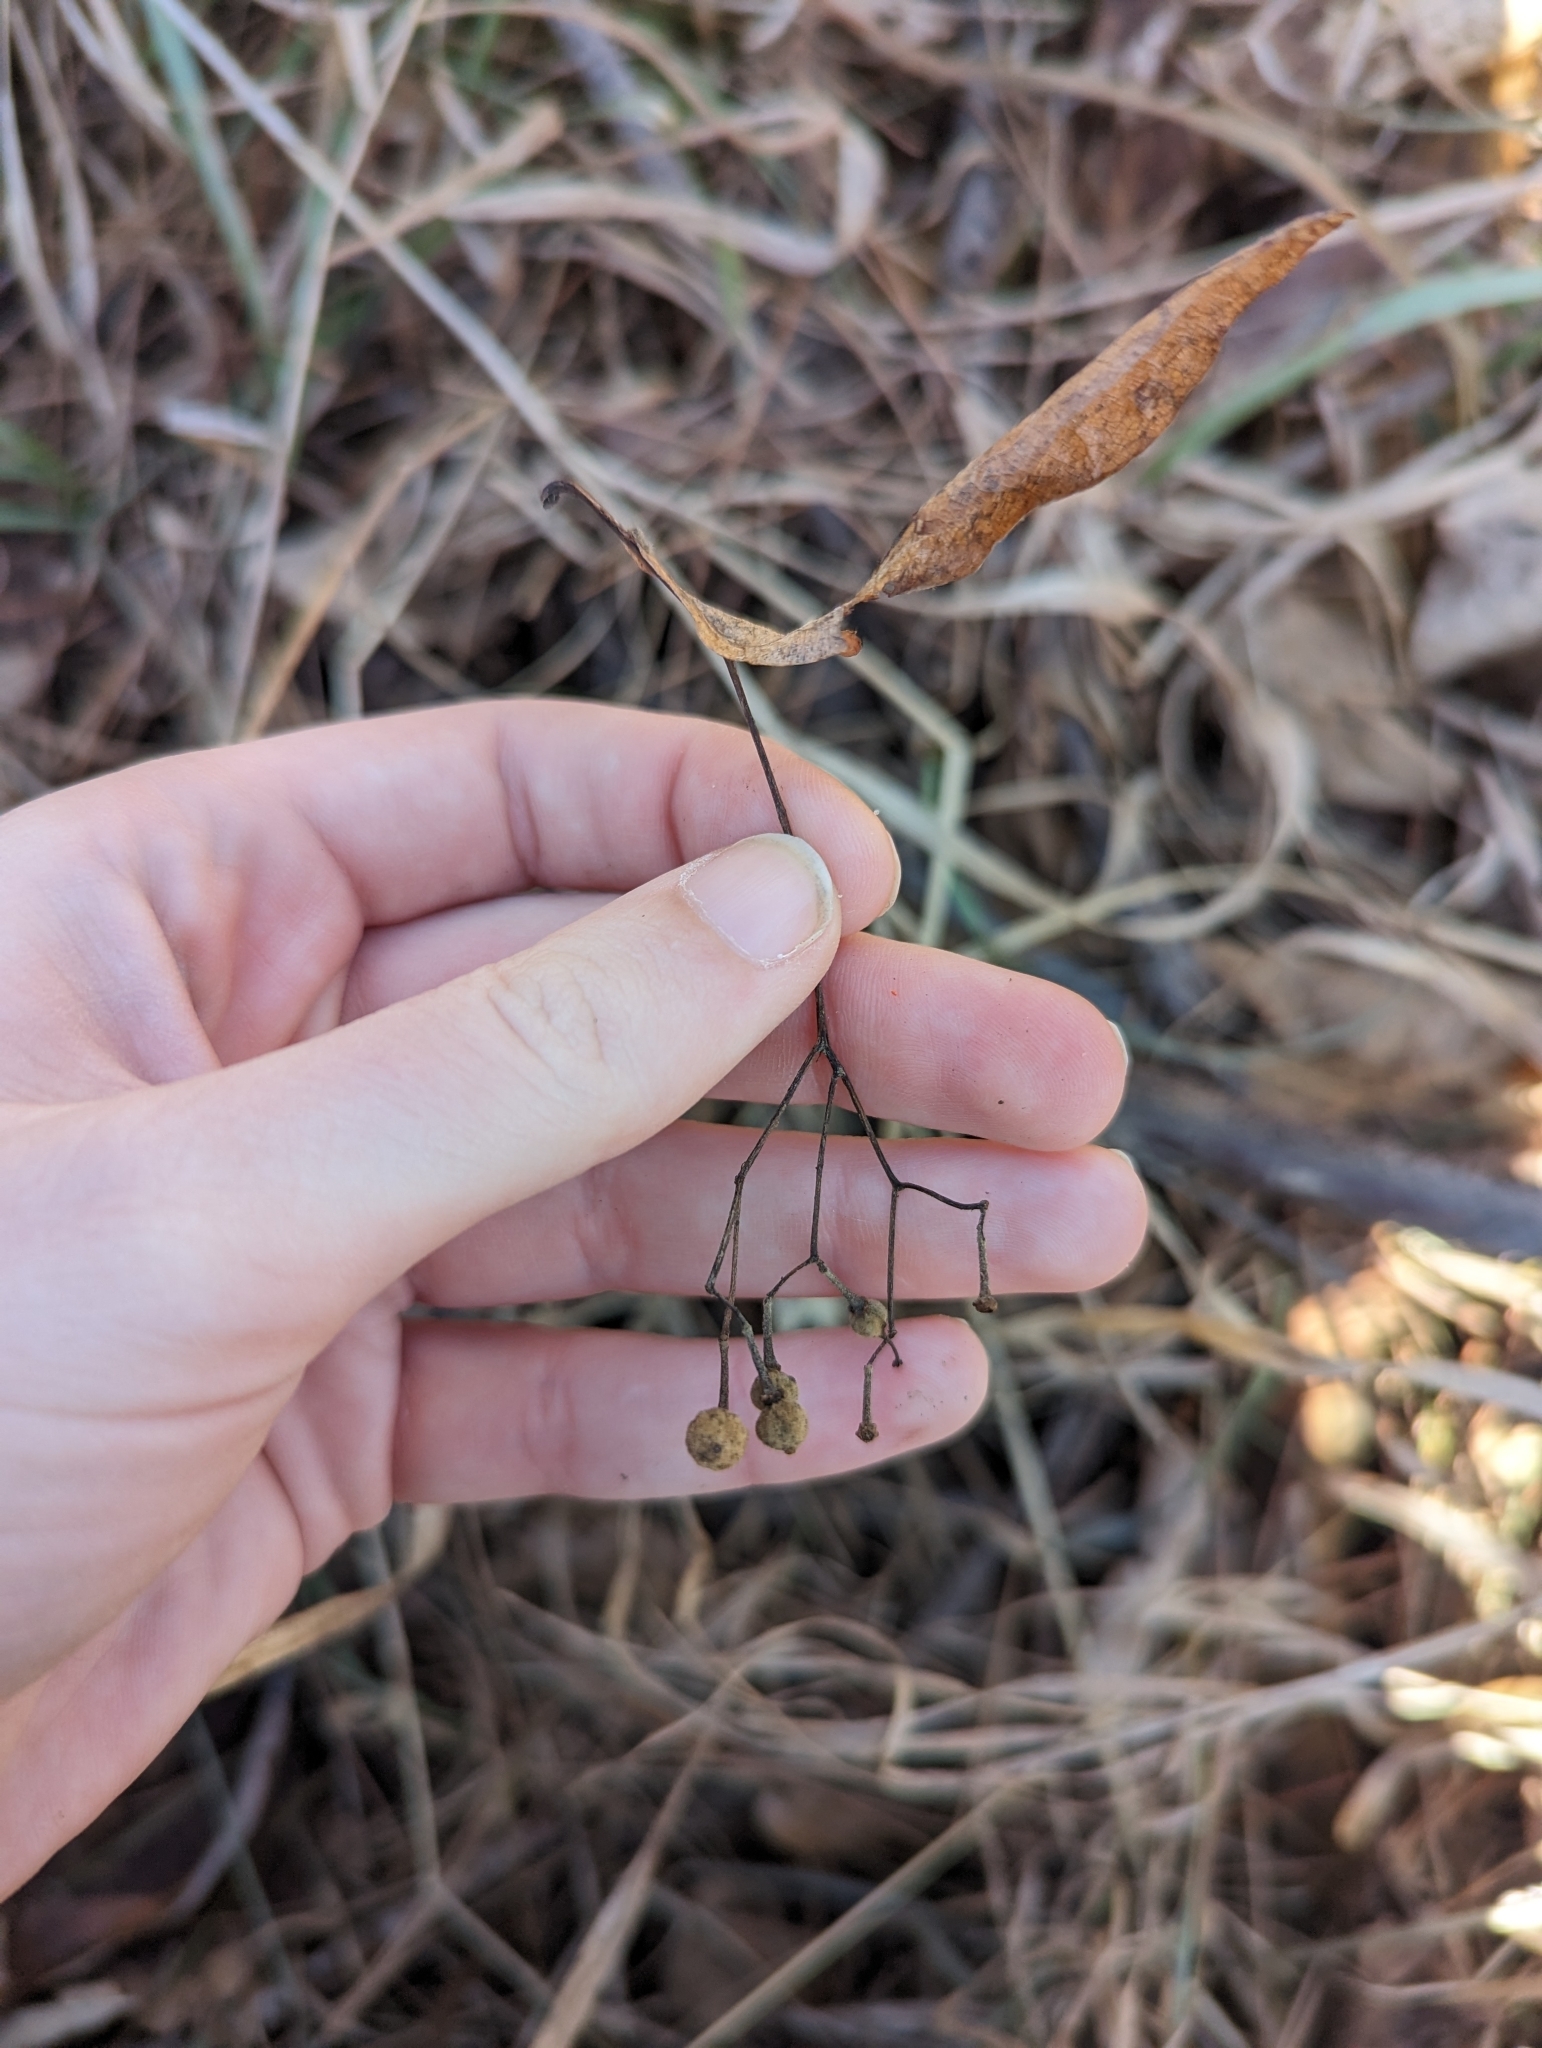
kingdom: Plantae
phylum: Tracheophyta
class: Magnoliopsida
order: Malvales
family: Malvaceae
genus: Tilia
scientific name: Tilia americana
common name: Basswood
